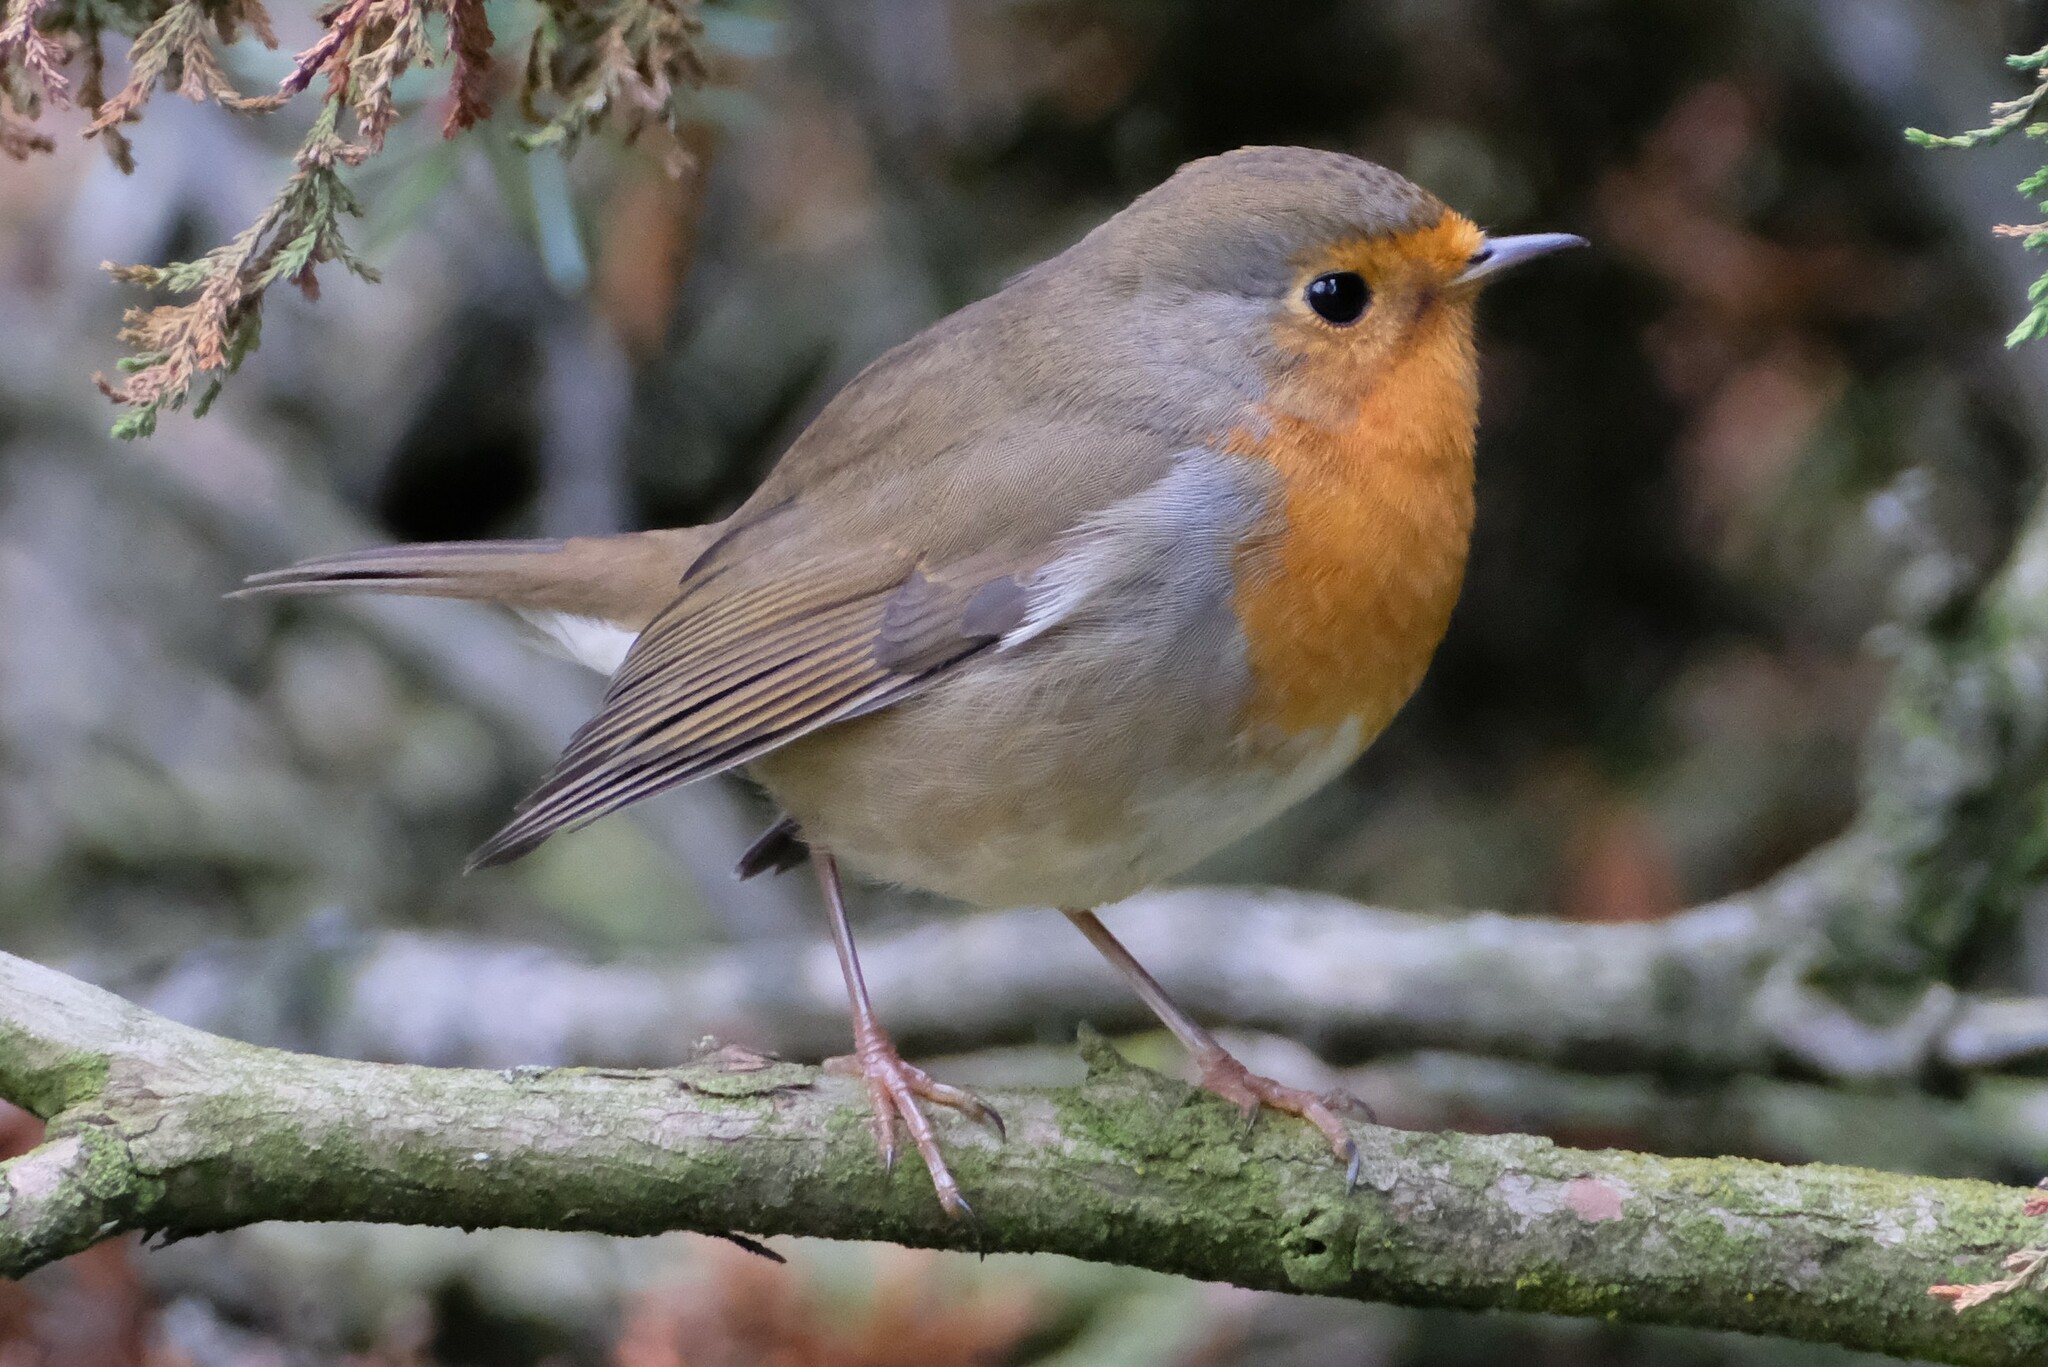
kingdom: Animalia
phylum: Chordata
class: Aves
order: Passeriformes
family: Muscicapidae
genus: Erithacus
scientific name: Erithacus rubecula
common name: European robin
